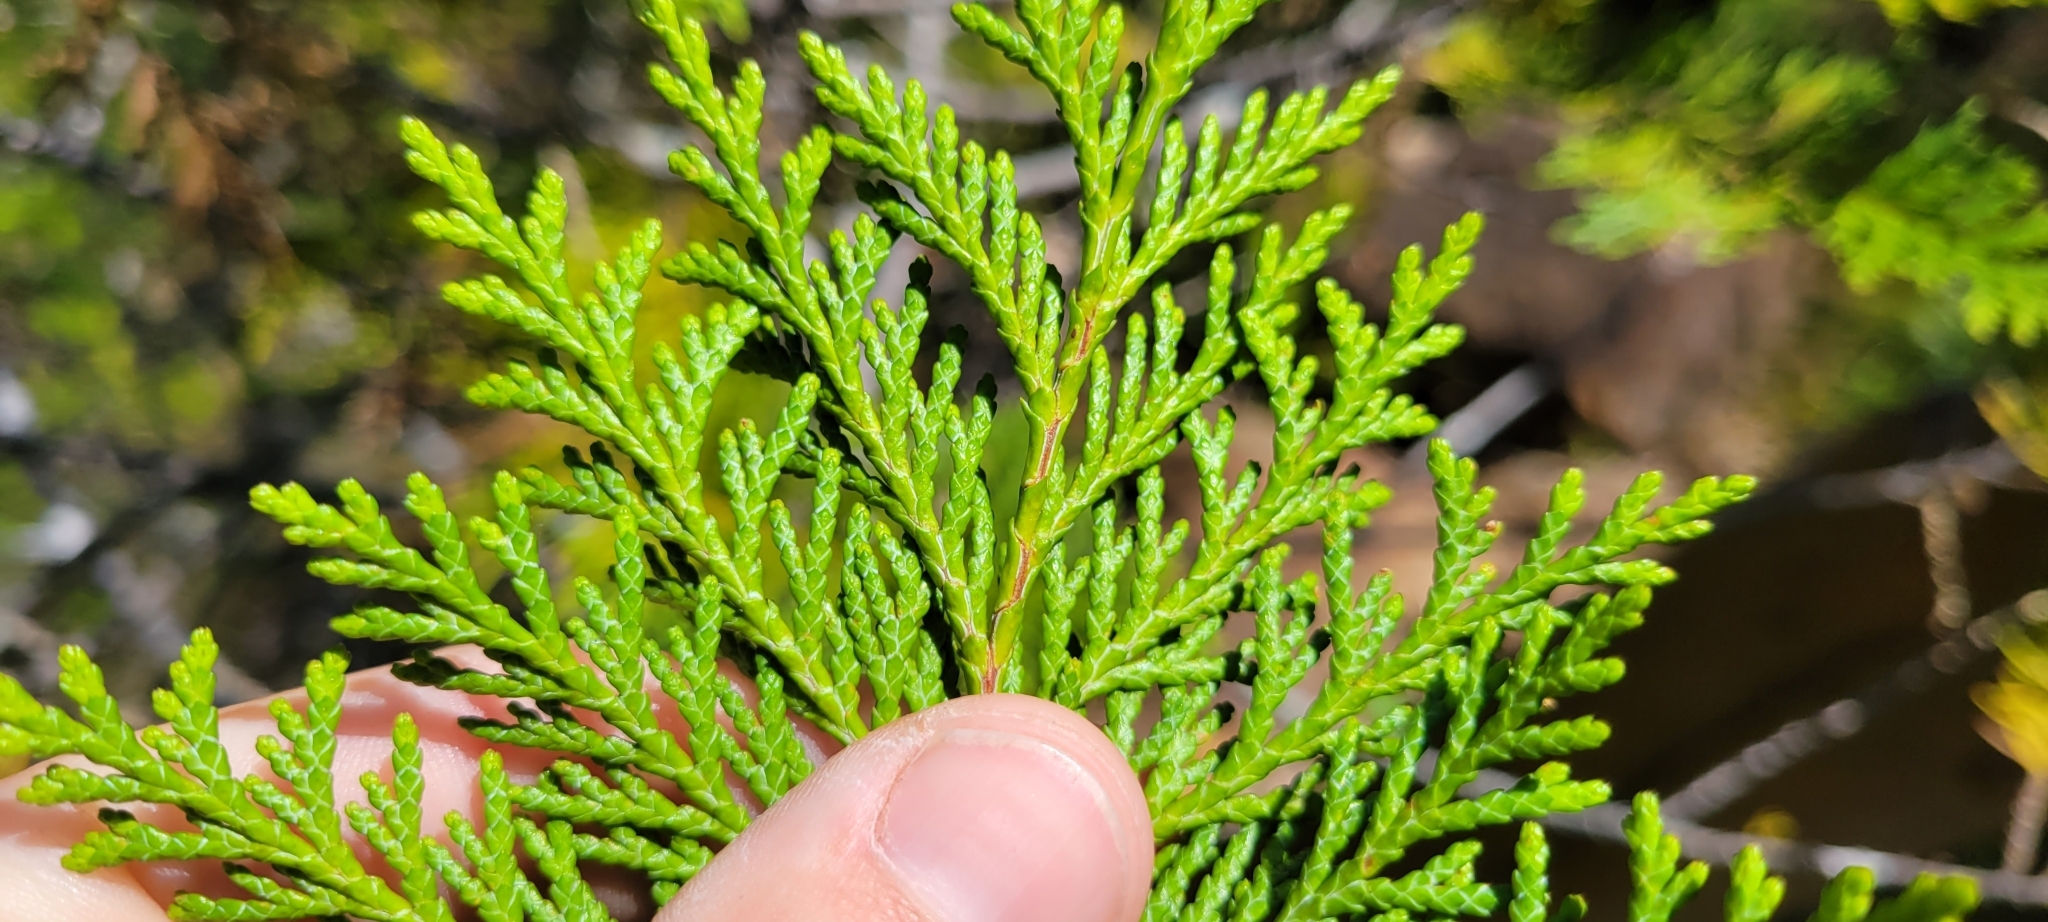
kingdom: Plantae
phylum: Tracheophyta
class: Pinopsida
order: Pinales
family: Cupressaceae
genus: Chamaecyparis
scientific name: Chamaecyparis lawsoniana
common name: Lawson's cypress
